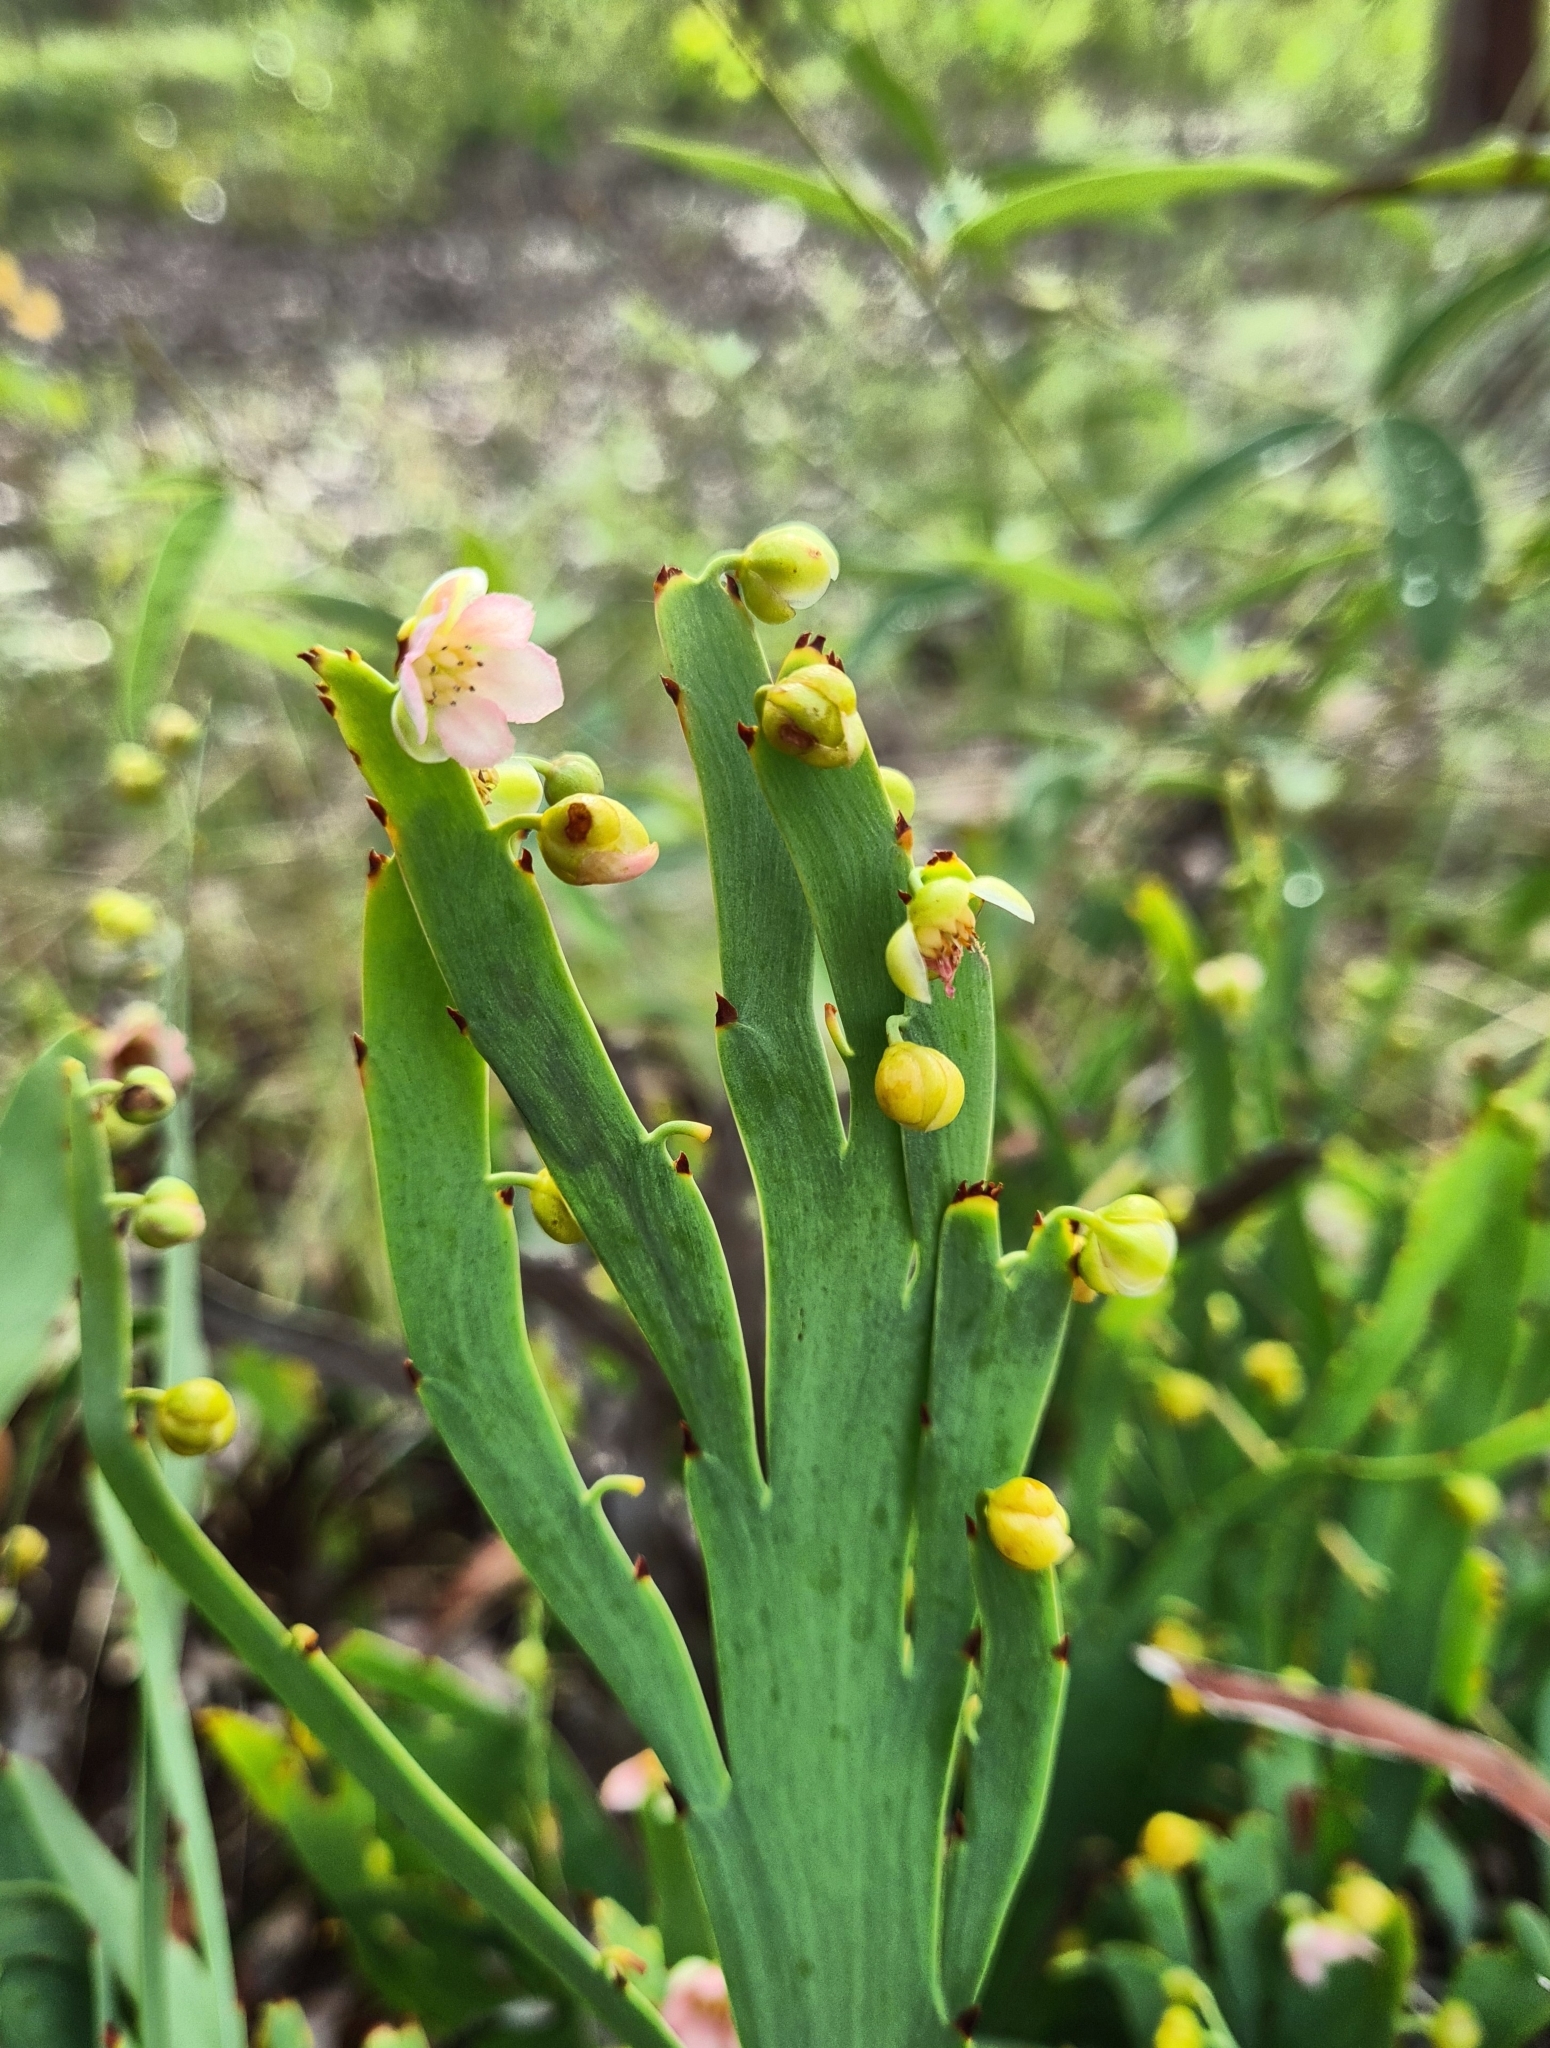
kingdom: Plantae
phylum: Tracheophyta
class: Magnoliopsida
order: Dilleniales
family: Dilleniaceae
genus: Hibbertia
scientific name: Hibbertia dilatata
